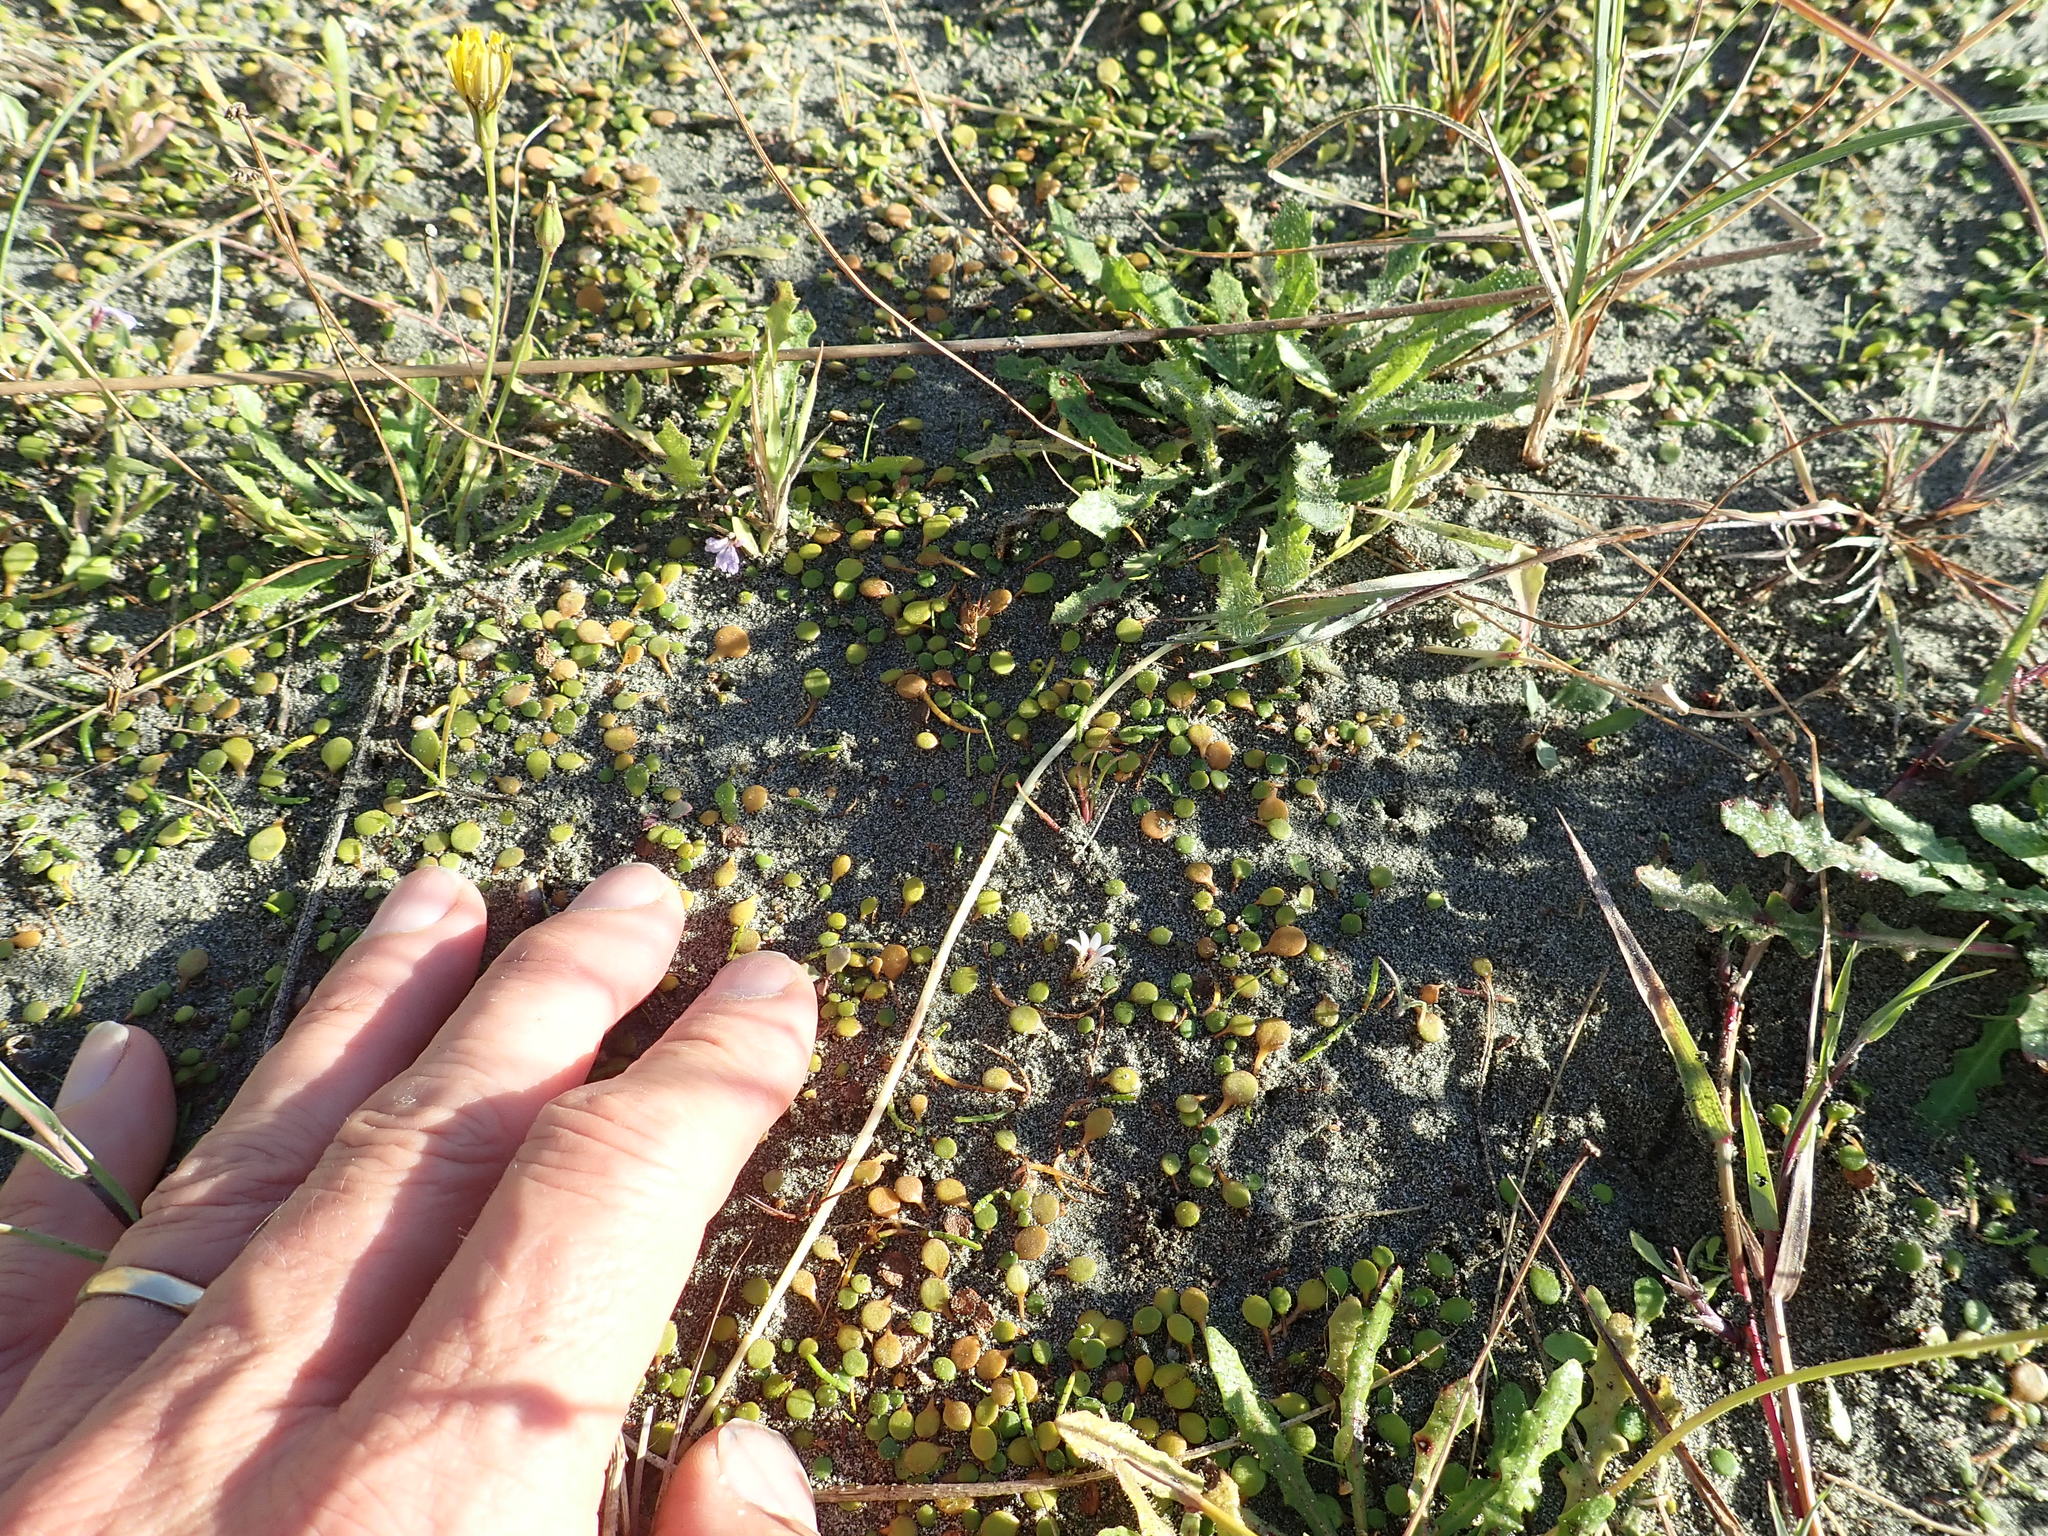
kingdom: Plantae
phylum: Tracheophyta
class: Magnoliopsida
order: Asterales
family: Goodeniaceae
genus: Goodenia
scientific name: Goodenia heenanii
